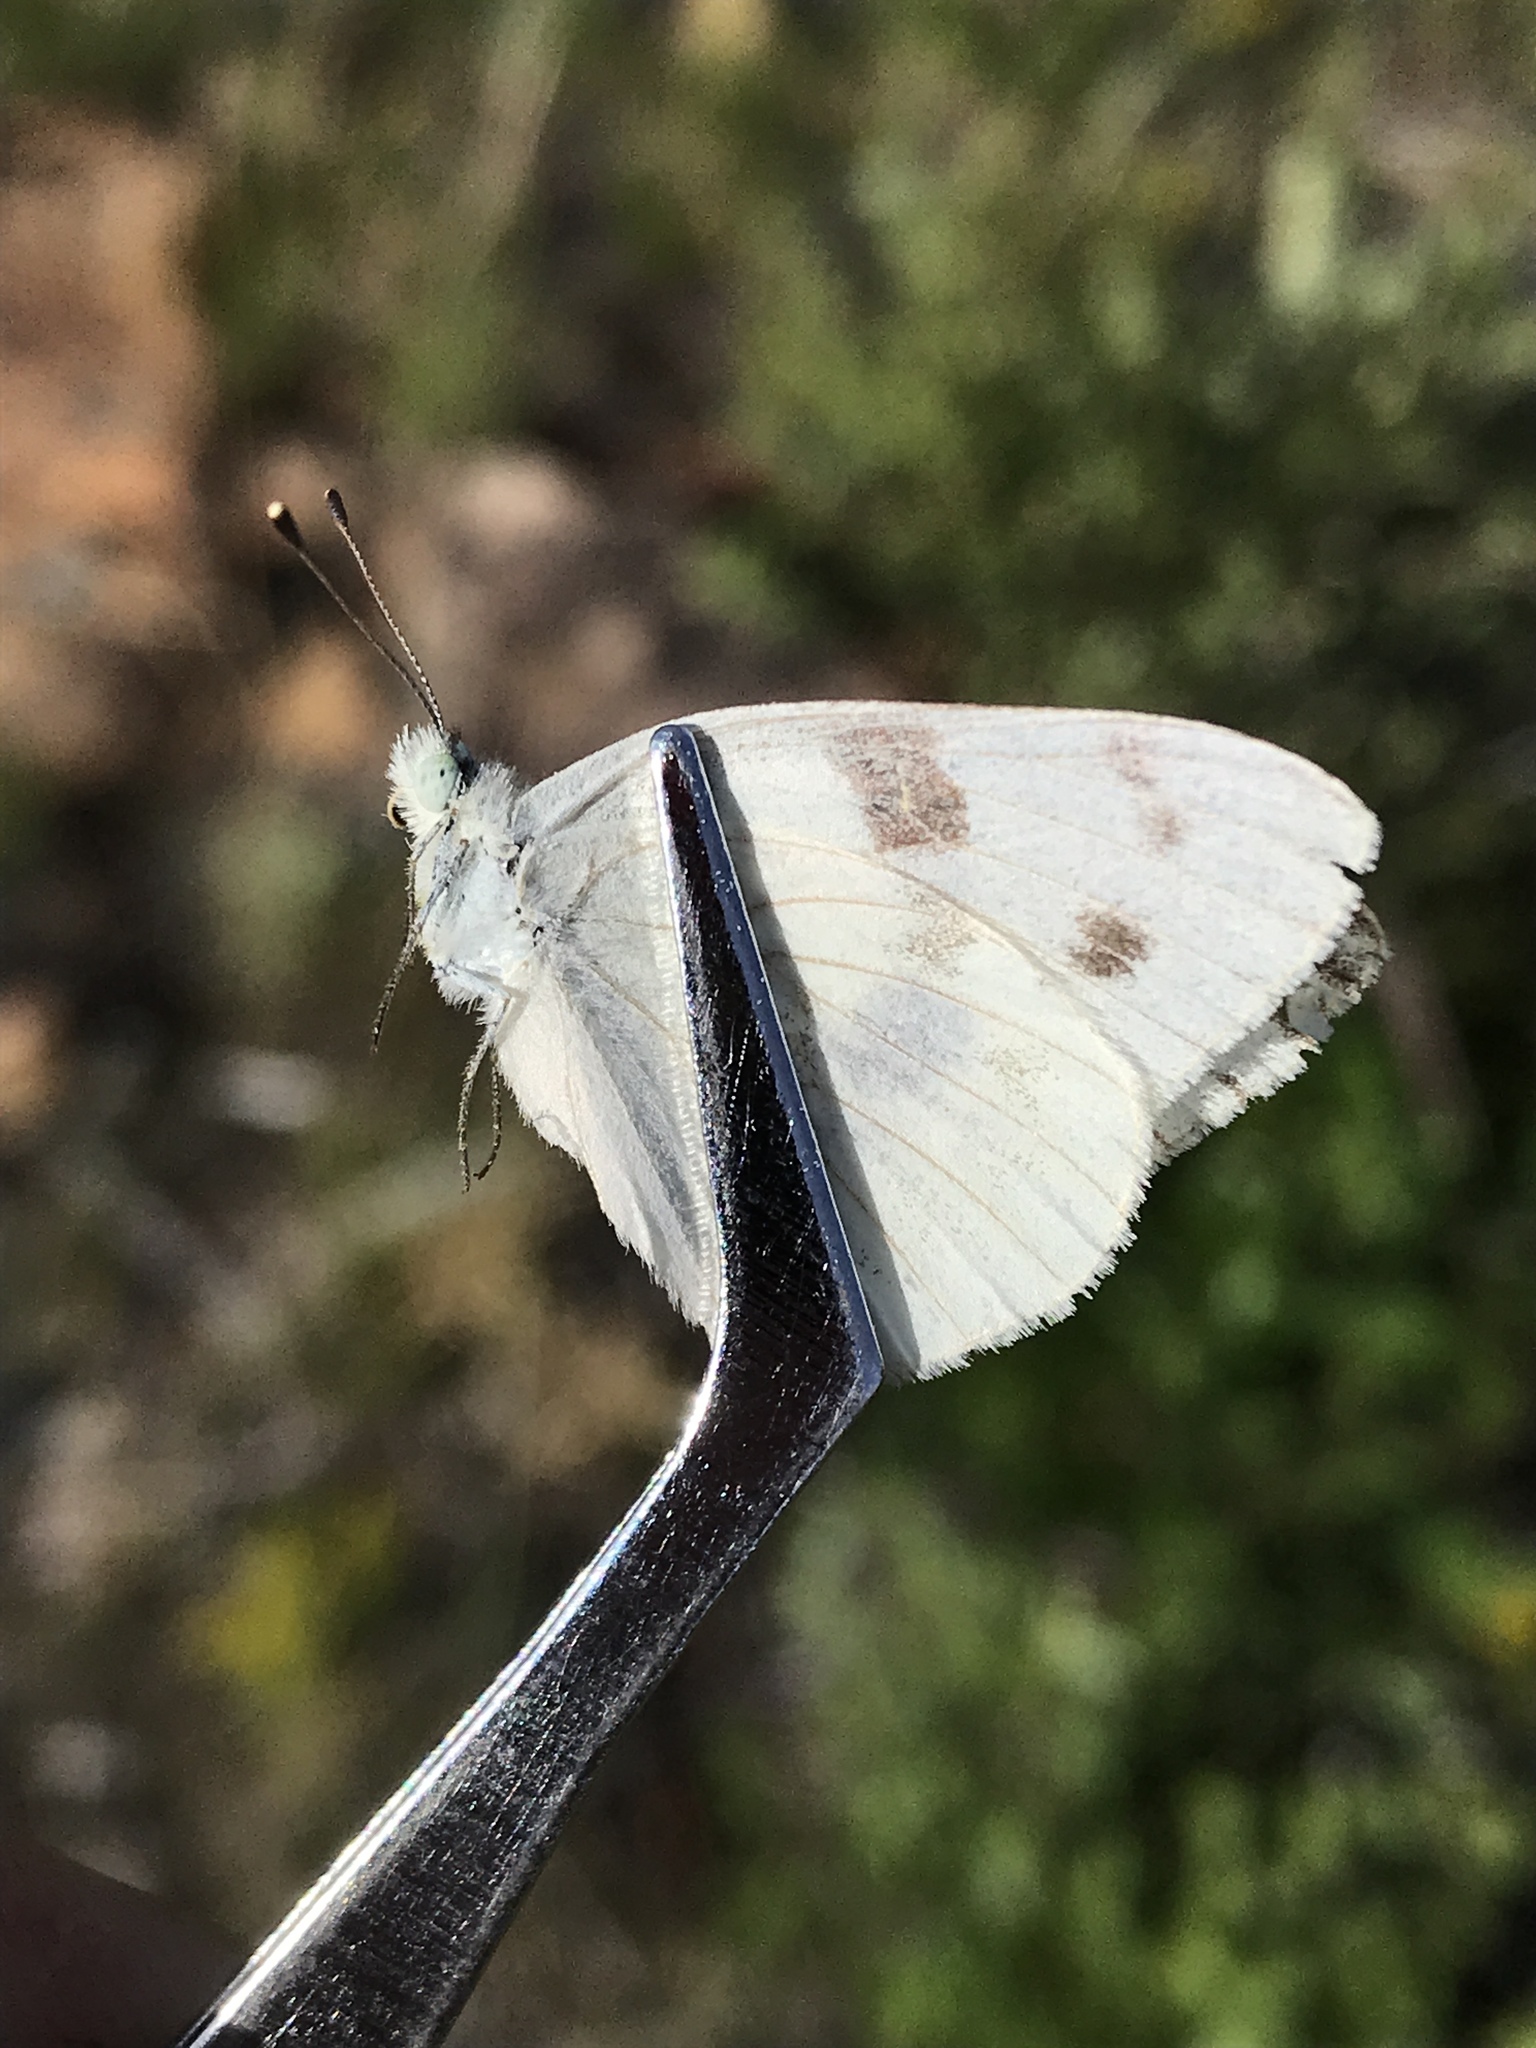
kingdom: Animalia
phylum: Arthropoda
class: Insecta
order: Lepidoptera
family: Pieridae
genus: Pontia
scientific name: Pontia protodice
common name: Checkered white
